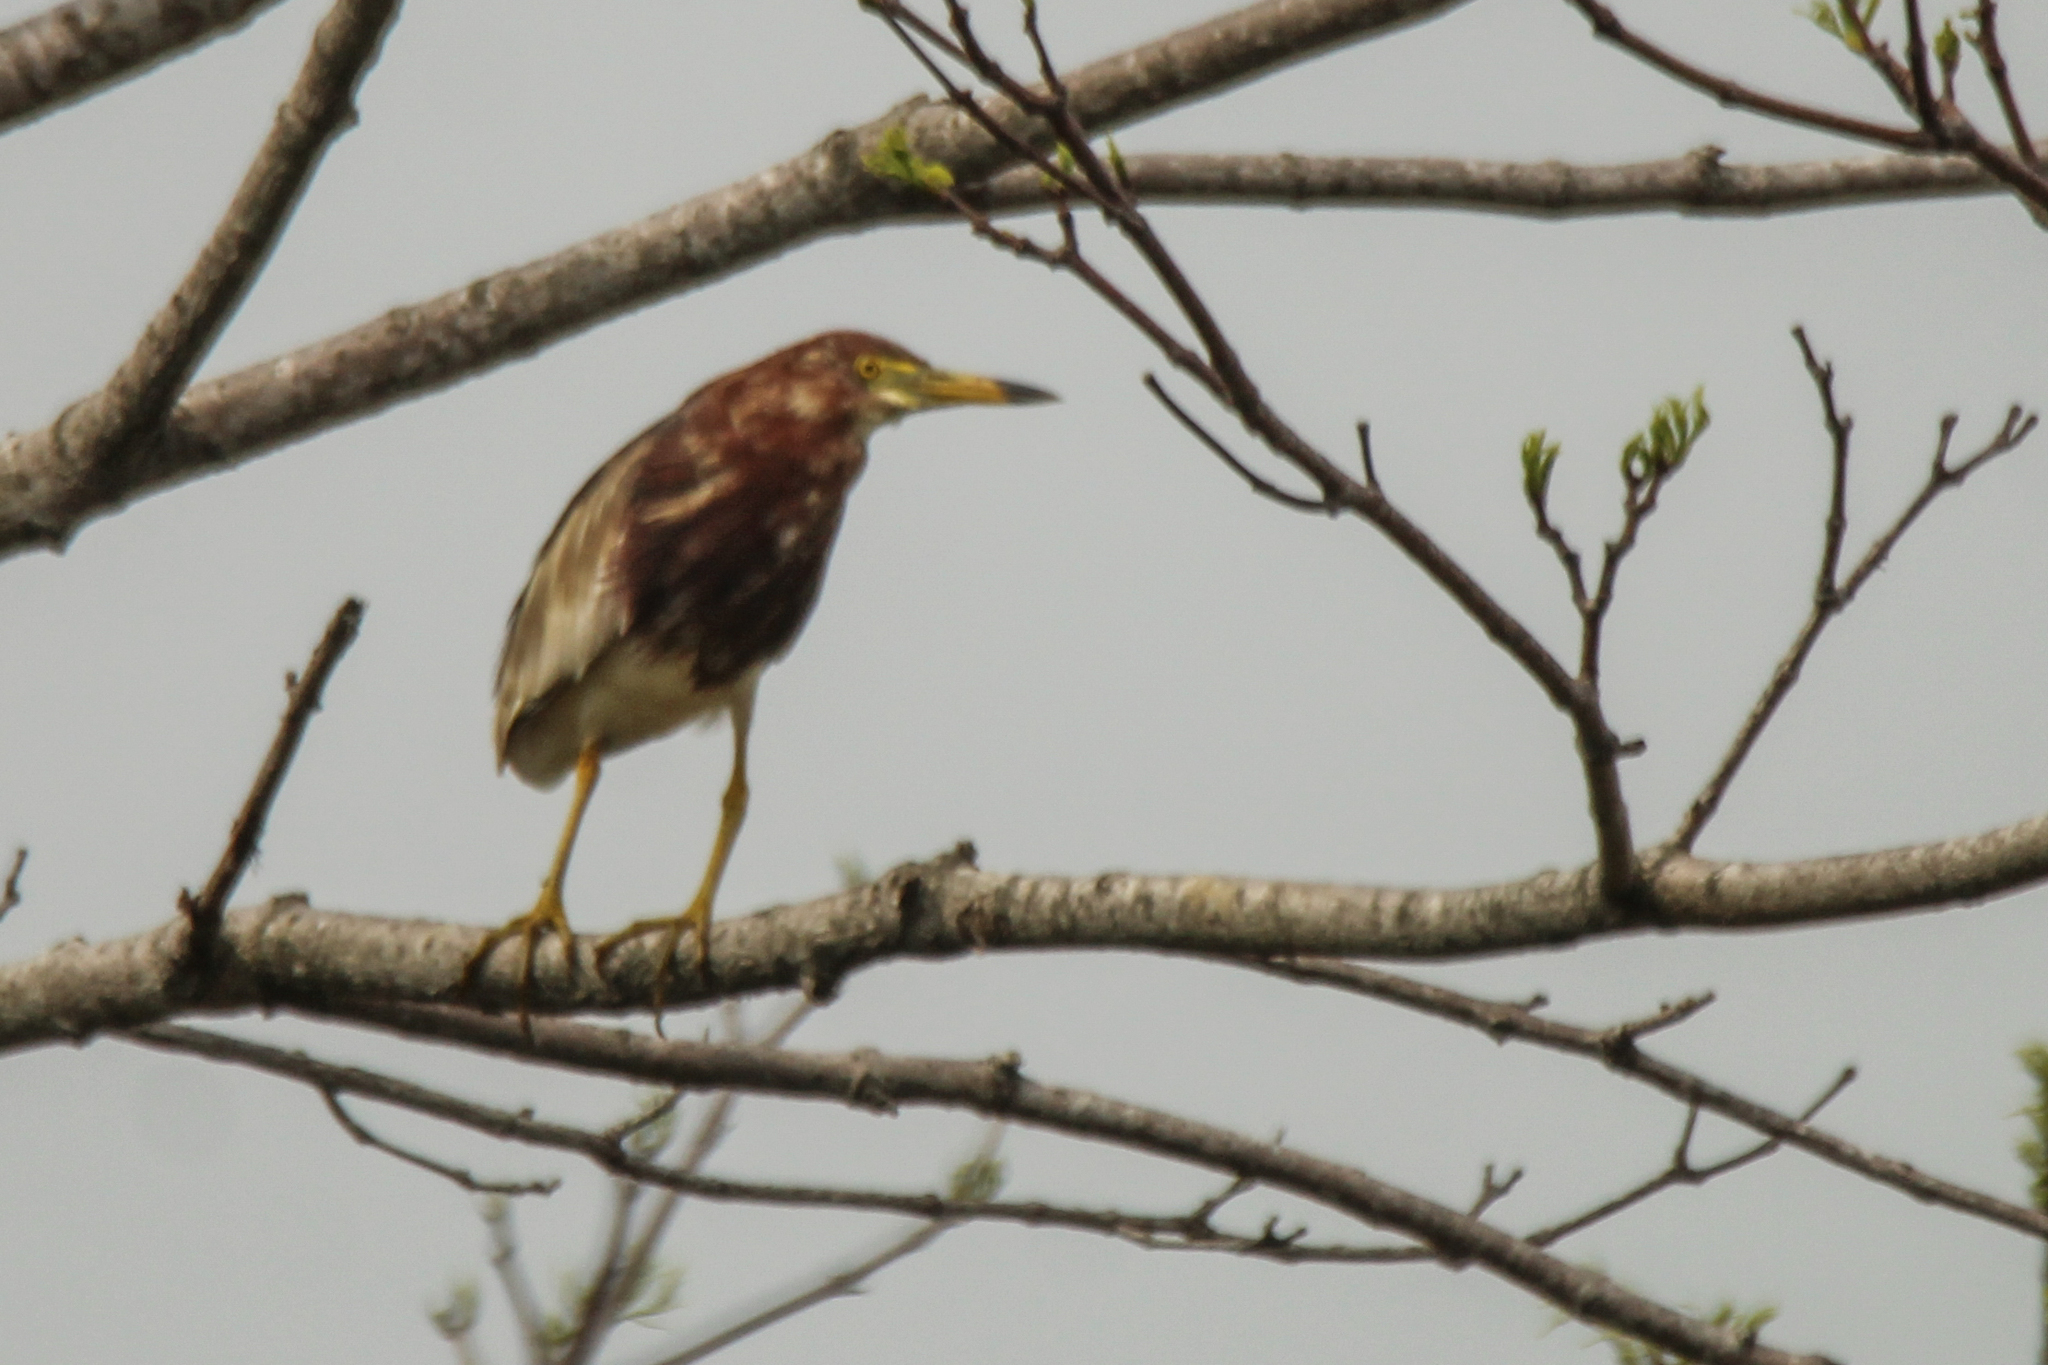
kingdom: Animalia
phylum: Chordata
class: Aves
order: Pelecaniformes
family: Ardeidae
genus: Ardeola
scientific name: Ardeola bacchus
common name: Chinese pond heron
